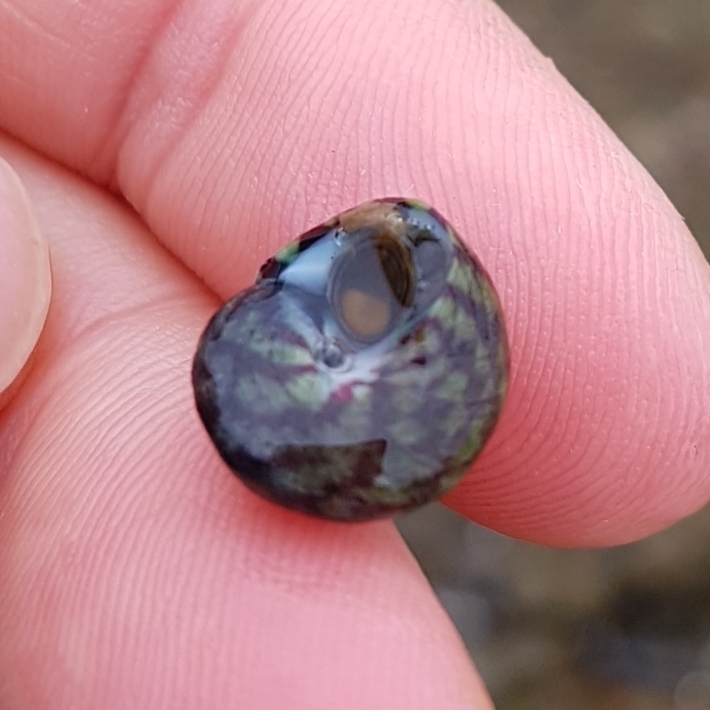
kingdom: Animalia
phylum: Mollusca
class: Gastropoda
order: Trochida
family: Trochidae
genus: Steromphala
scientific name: Steromphala umbilicalis
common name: Flat top shell
